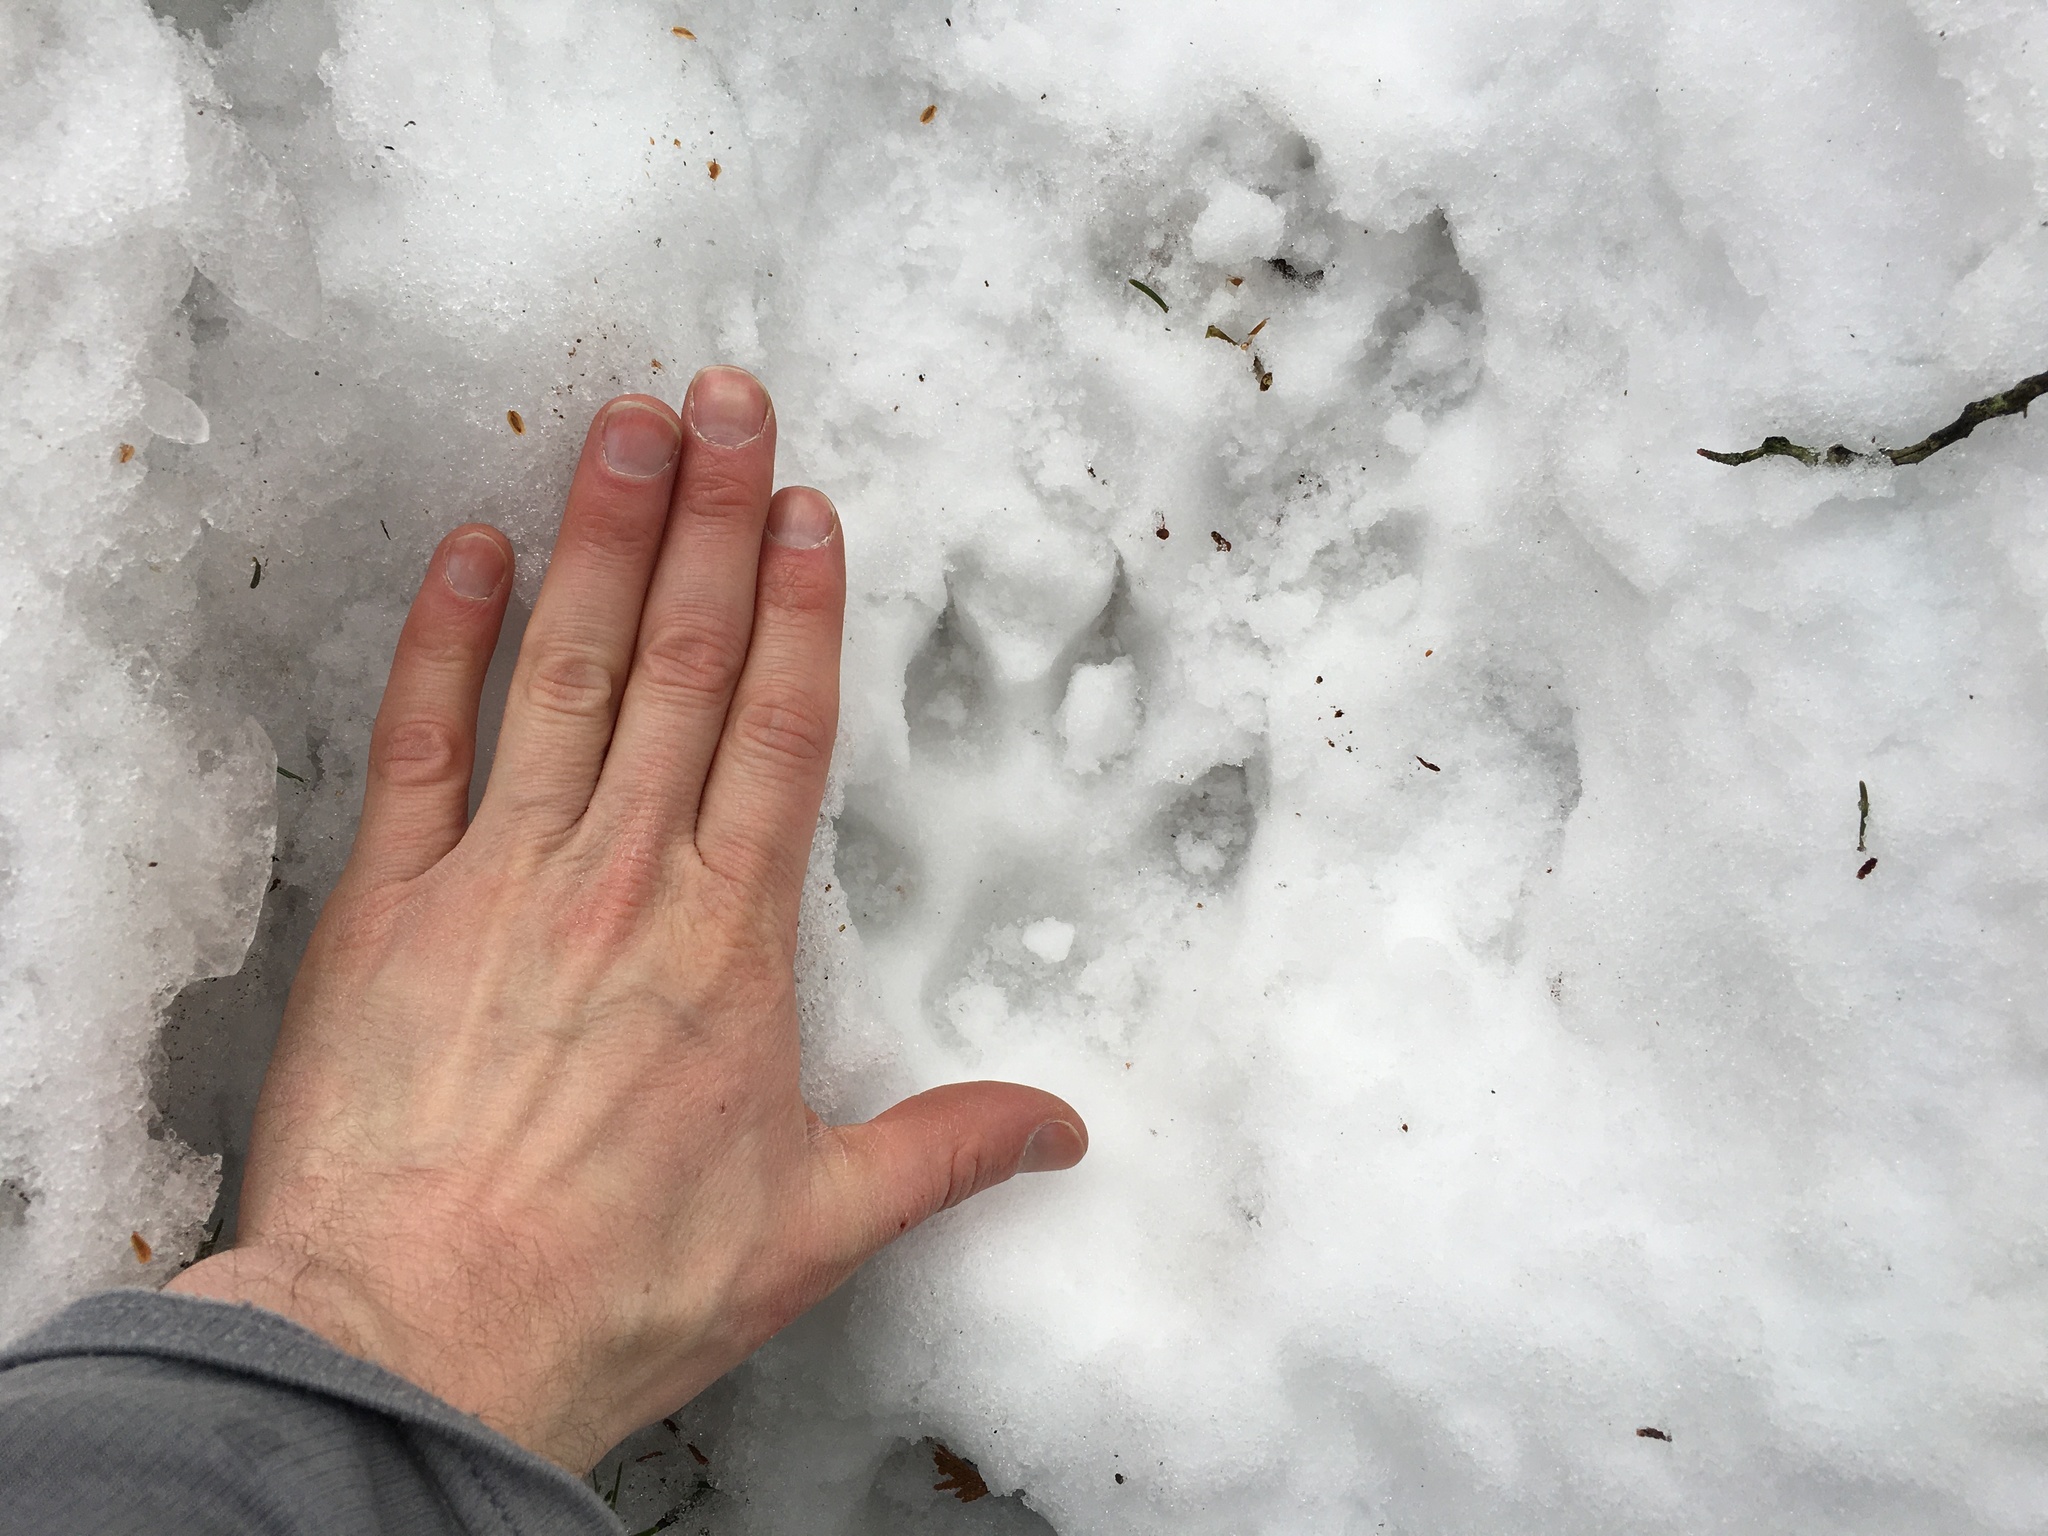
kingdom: Animalia
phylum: Chordata
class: Mammalia
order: Carnivora
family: Canidae
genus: Canis
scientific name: Canis lupus
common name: Gray wolf
